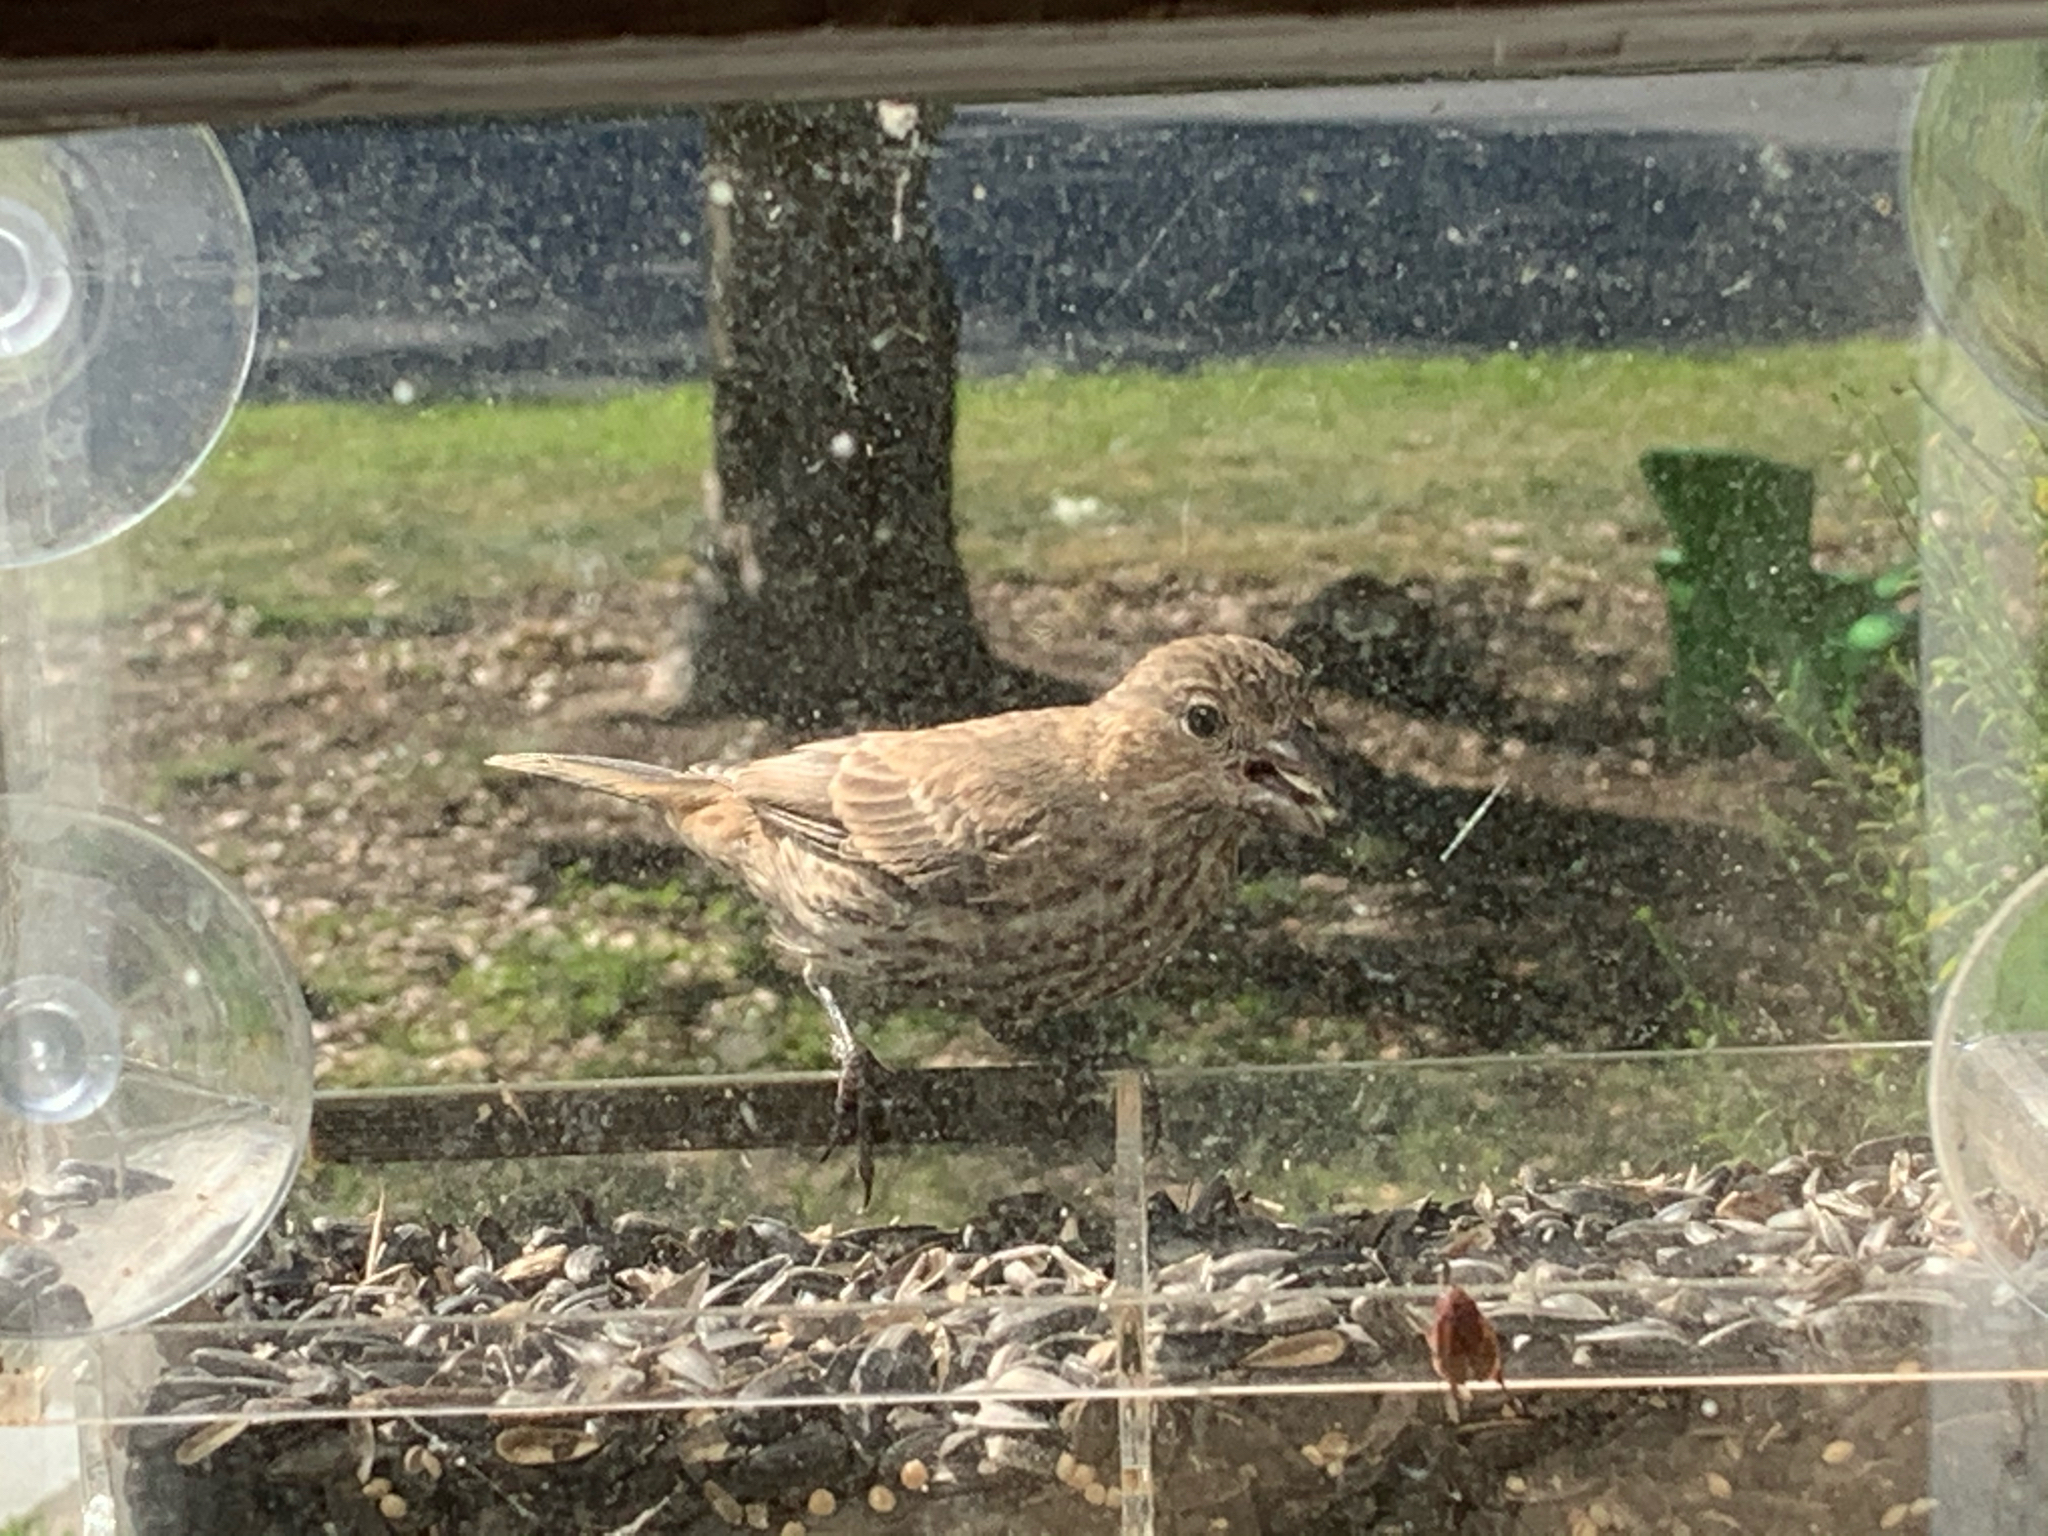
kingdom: Animalia
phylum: Chordata
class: Aves
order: Passeriformes
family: Fringillidae
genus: Haemorhous
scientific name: Haemorhous mexicanus
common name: House finch
